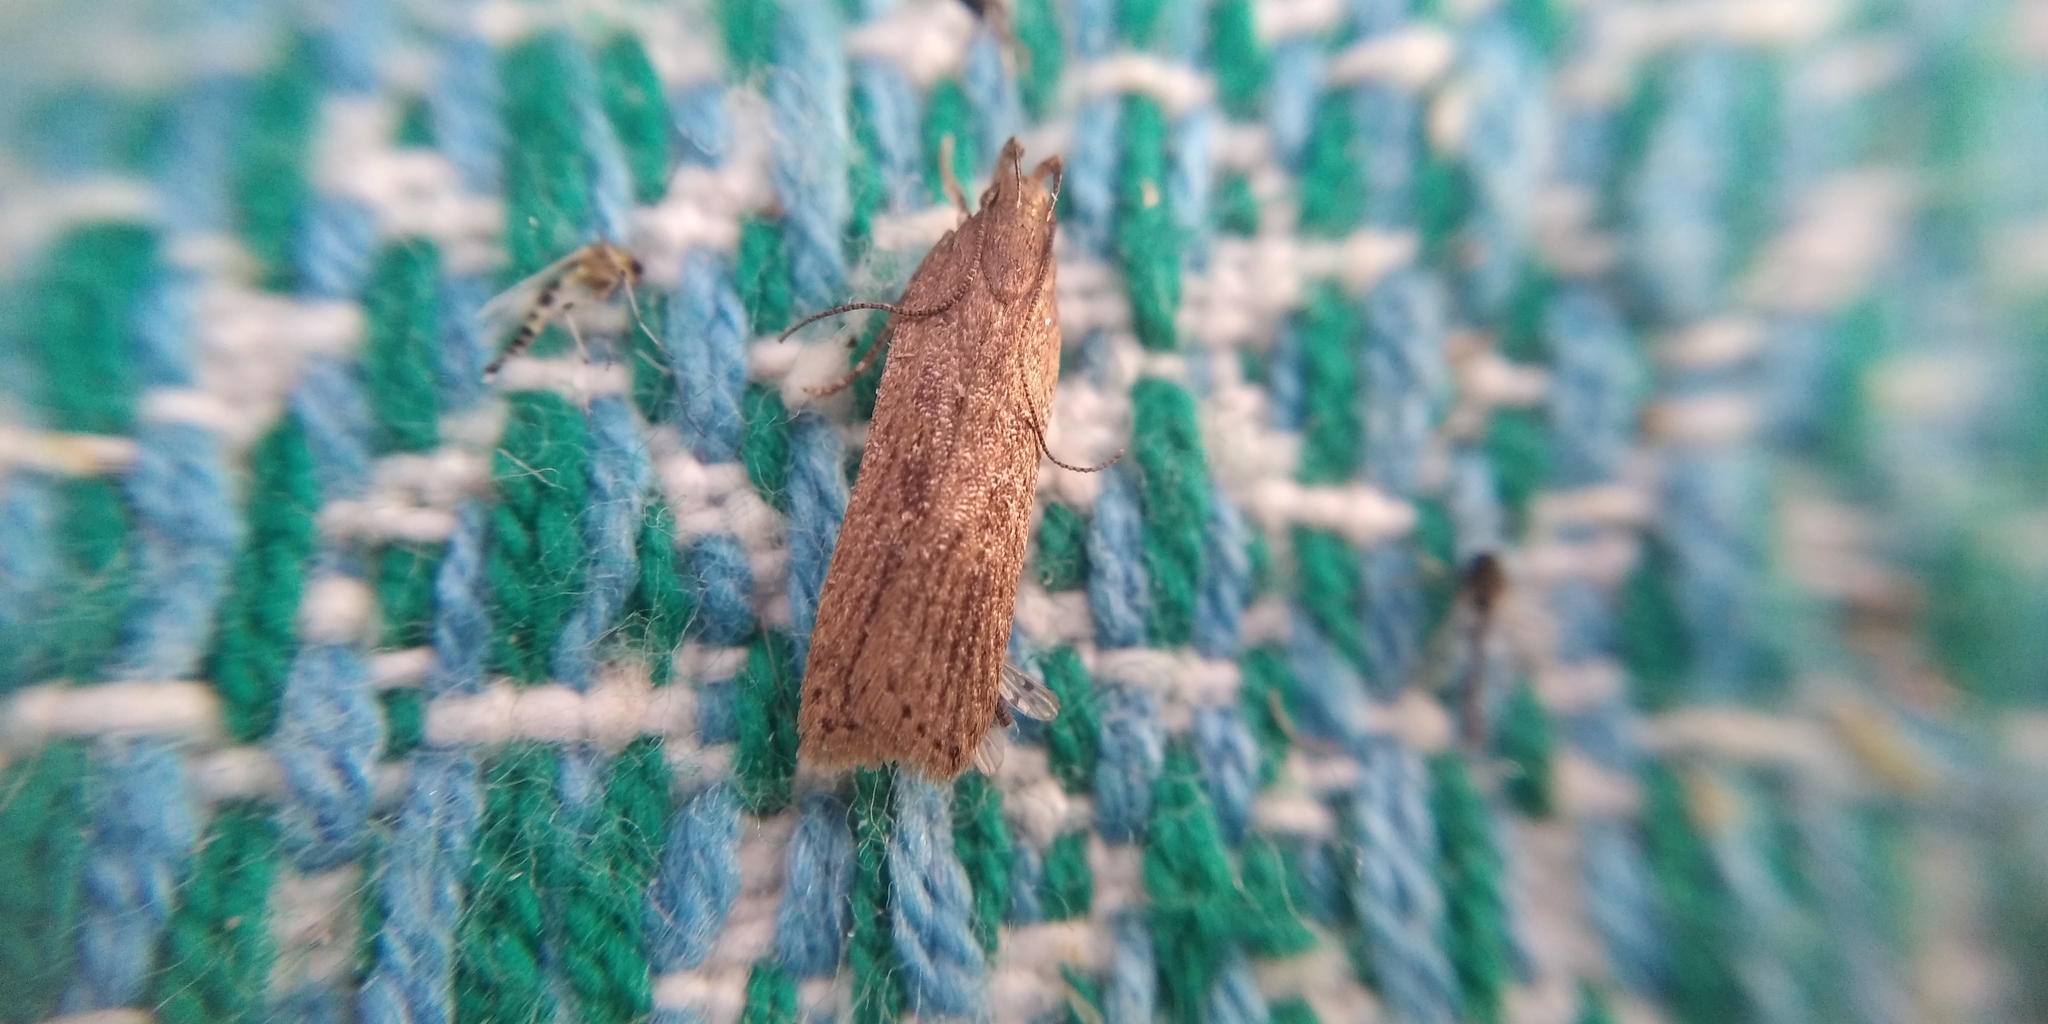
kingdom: Animalia
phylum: Arthropoda
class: Insecta
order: Lepidoptera
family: Gelechiidae
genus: Helcystogramma
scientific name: Helcystogramma triannulella
